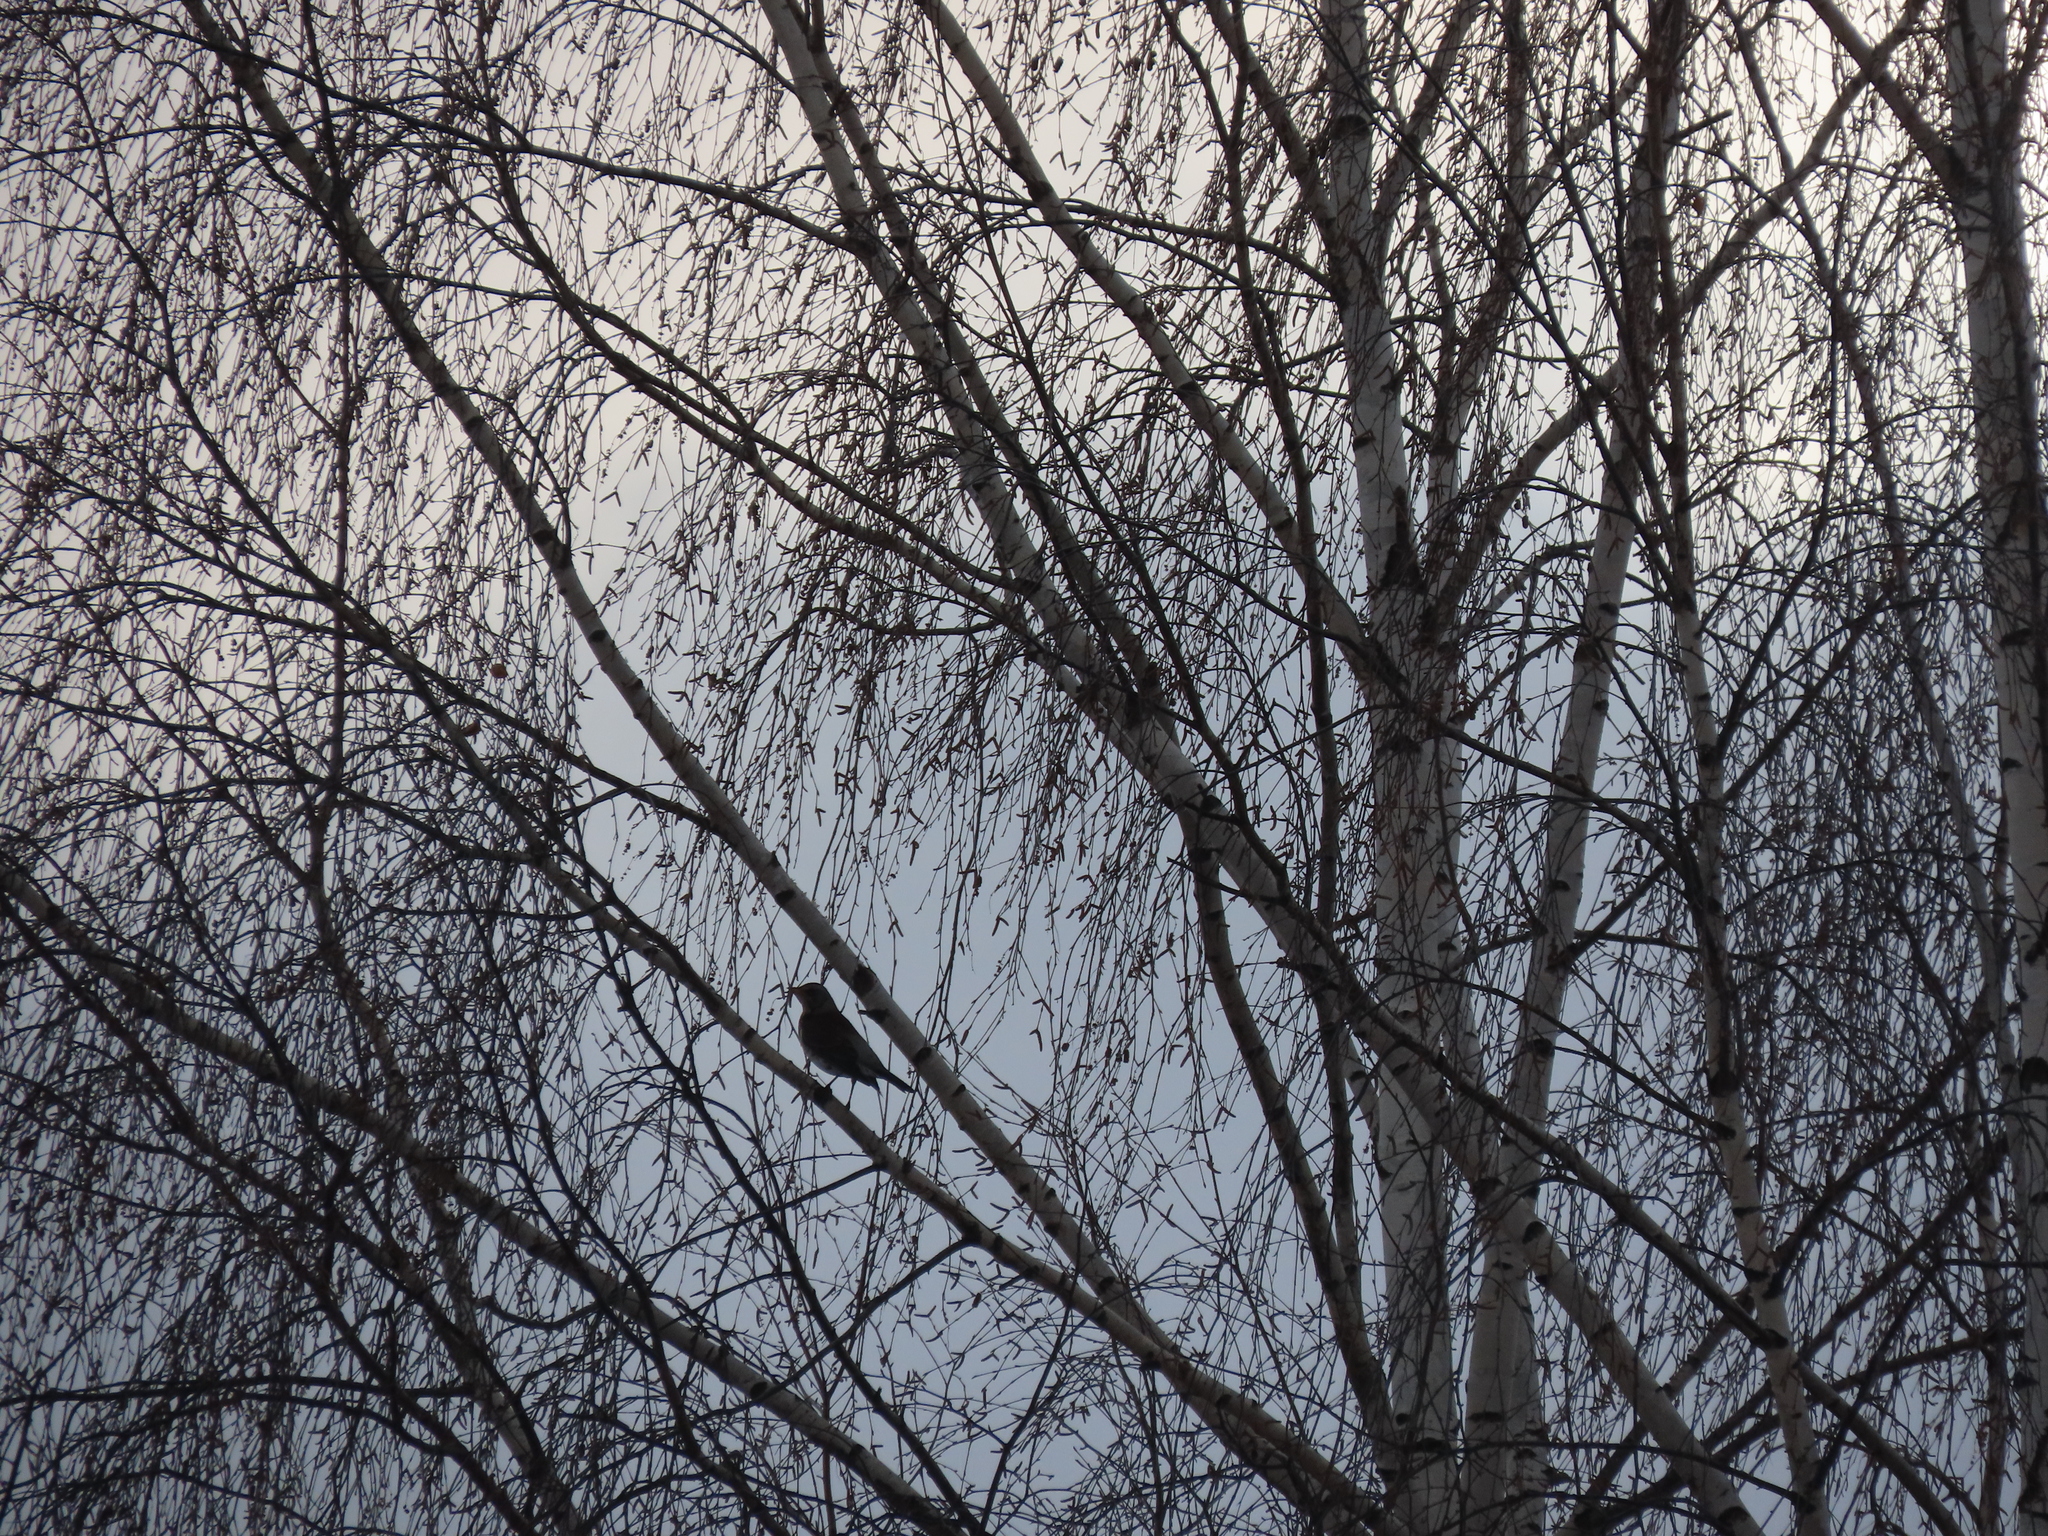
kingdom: Animalia
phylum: Chordata
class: Aves
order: Passeriformes
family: Turdidae
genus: Turdus
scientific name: Turdus pilaris
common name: Fieldfare
